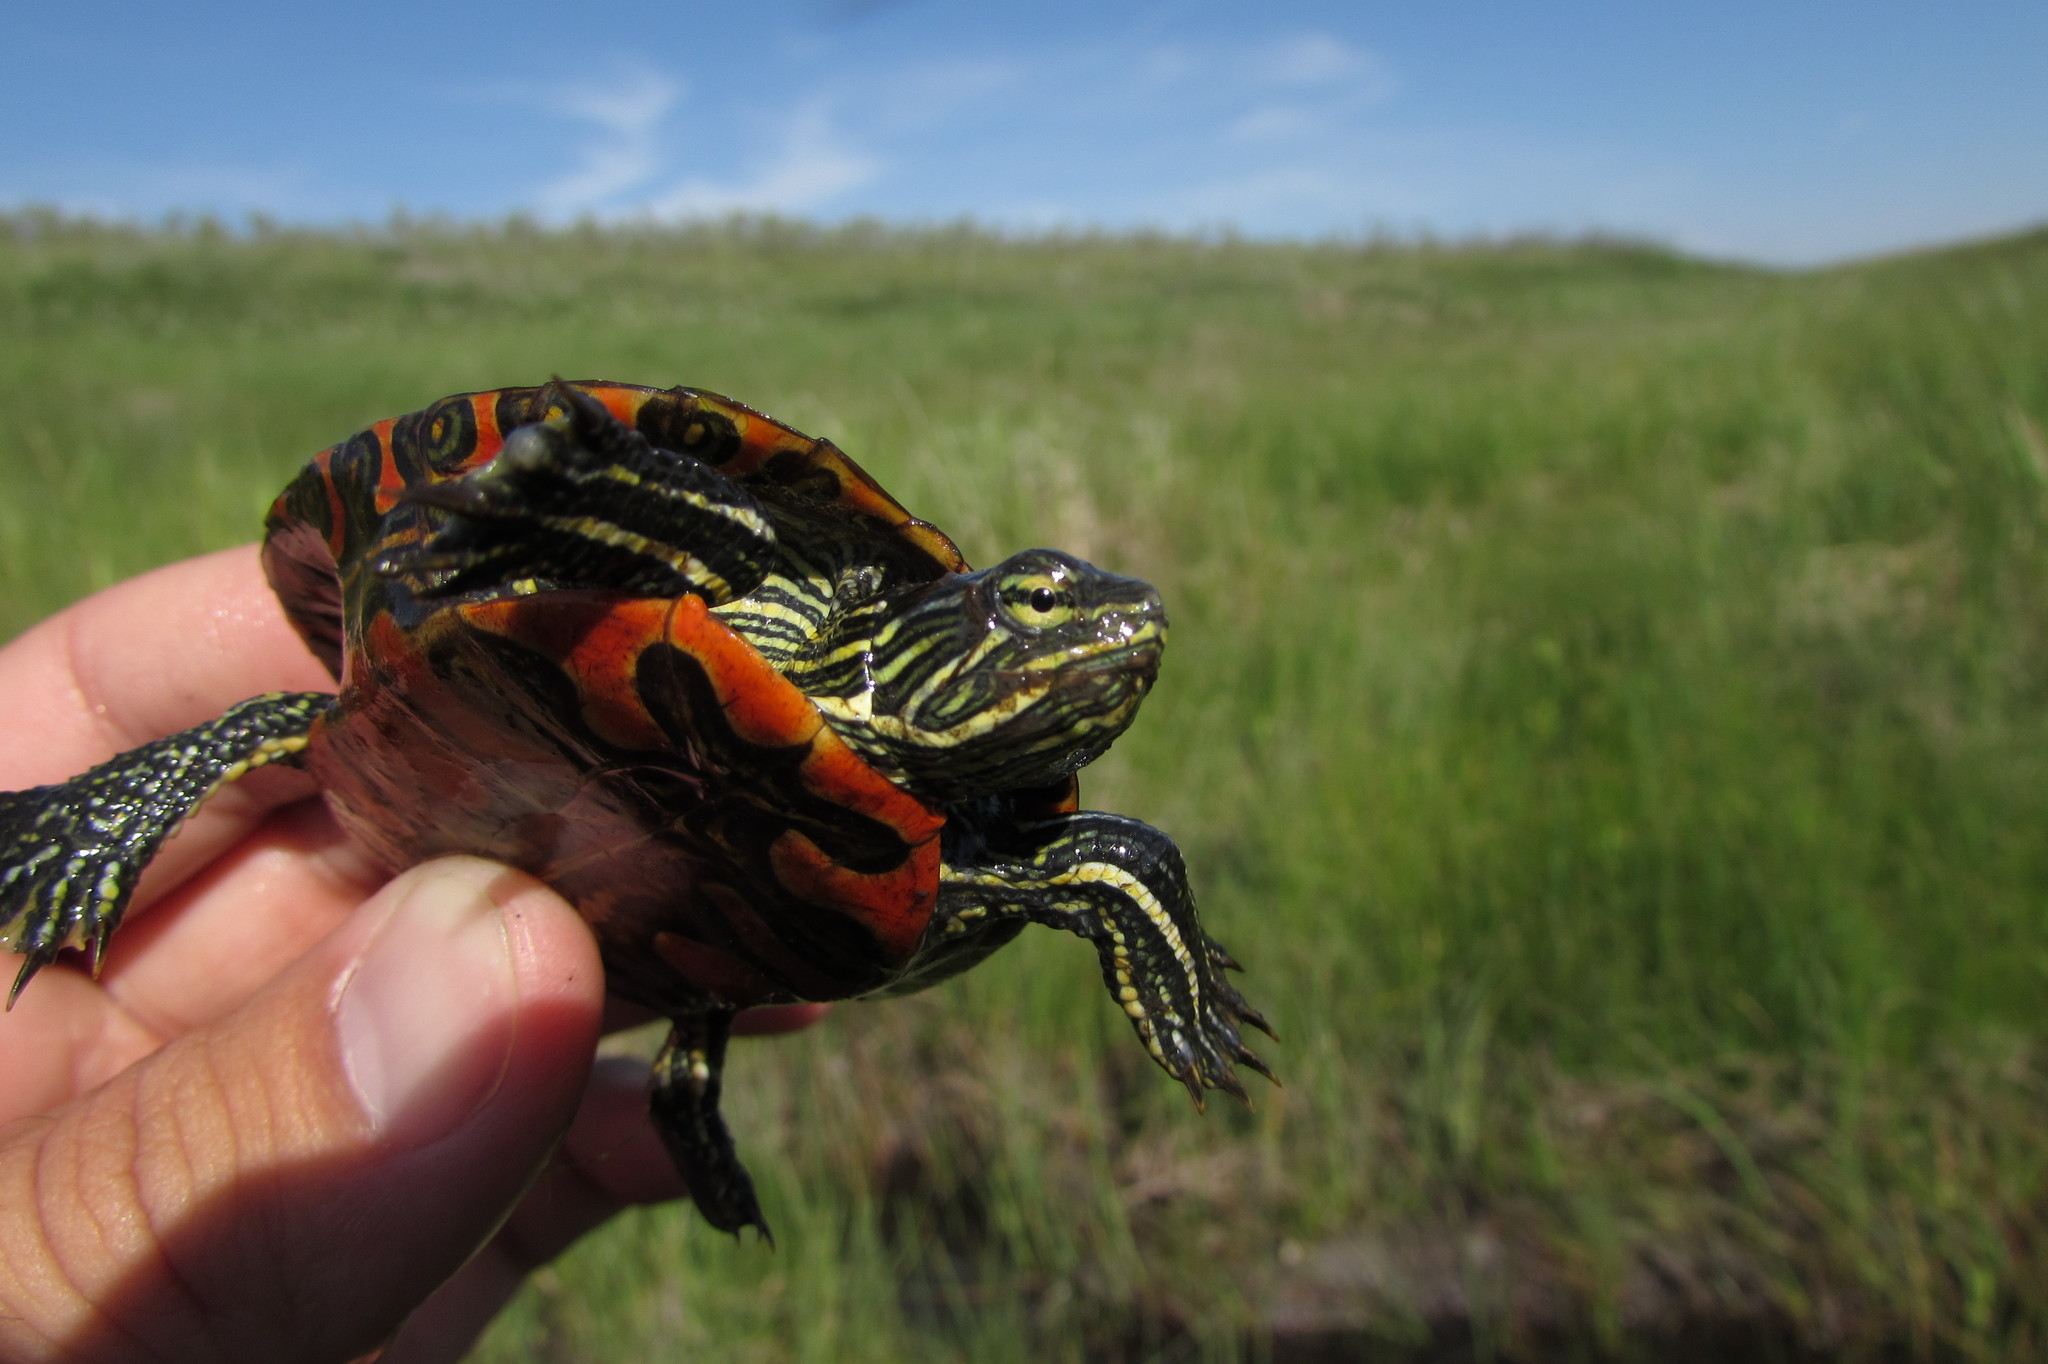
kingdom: Animalia
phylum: Chordata
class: Testudines
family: Emydidae
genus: Chrysemys
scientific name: Chrysemys picta
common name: Painted turtle
